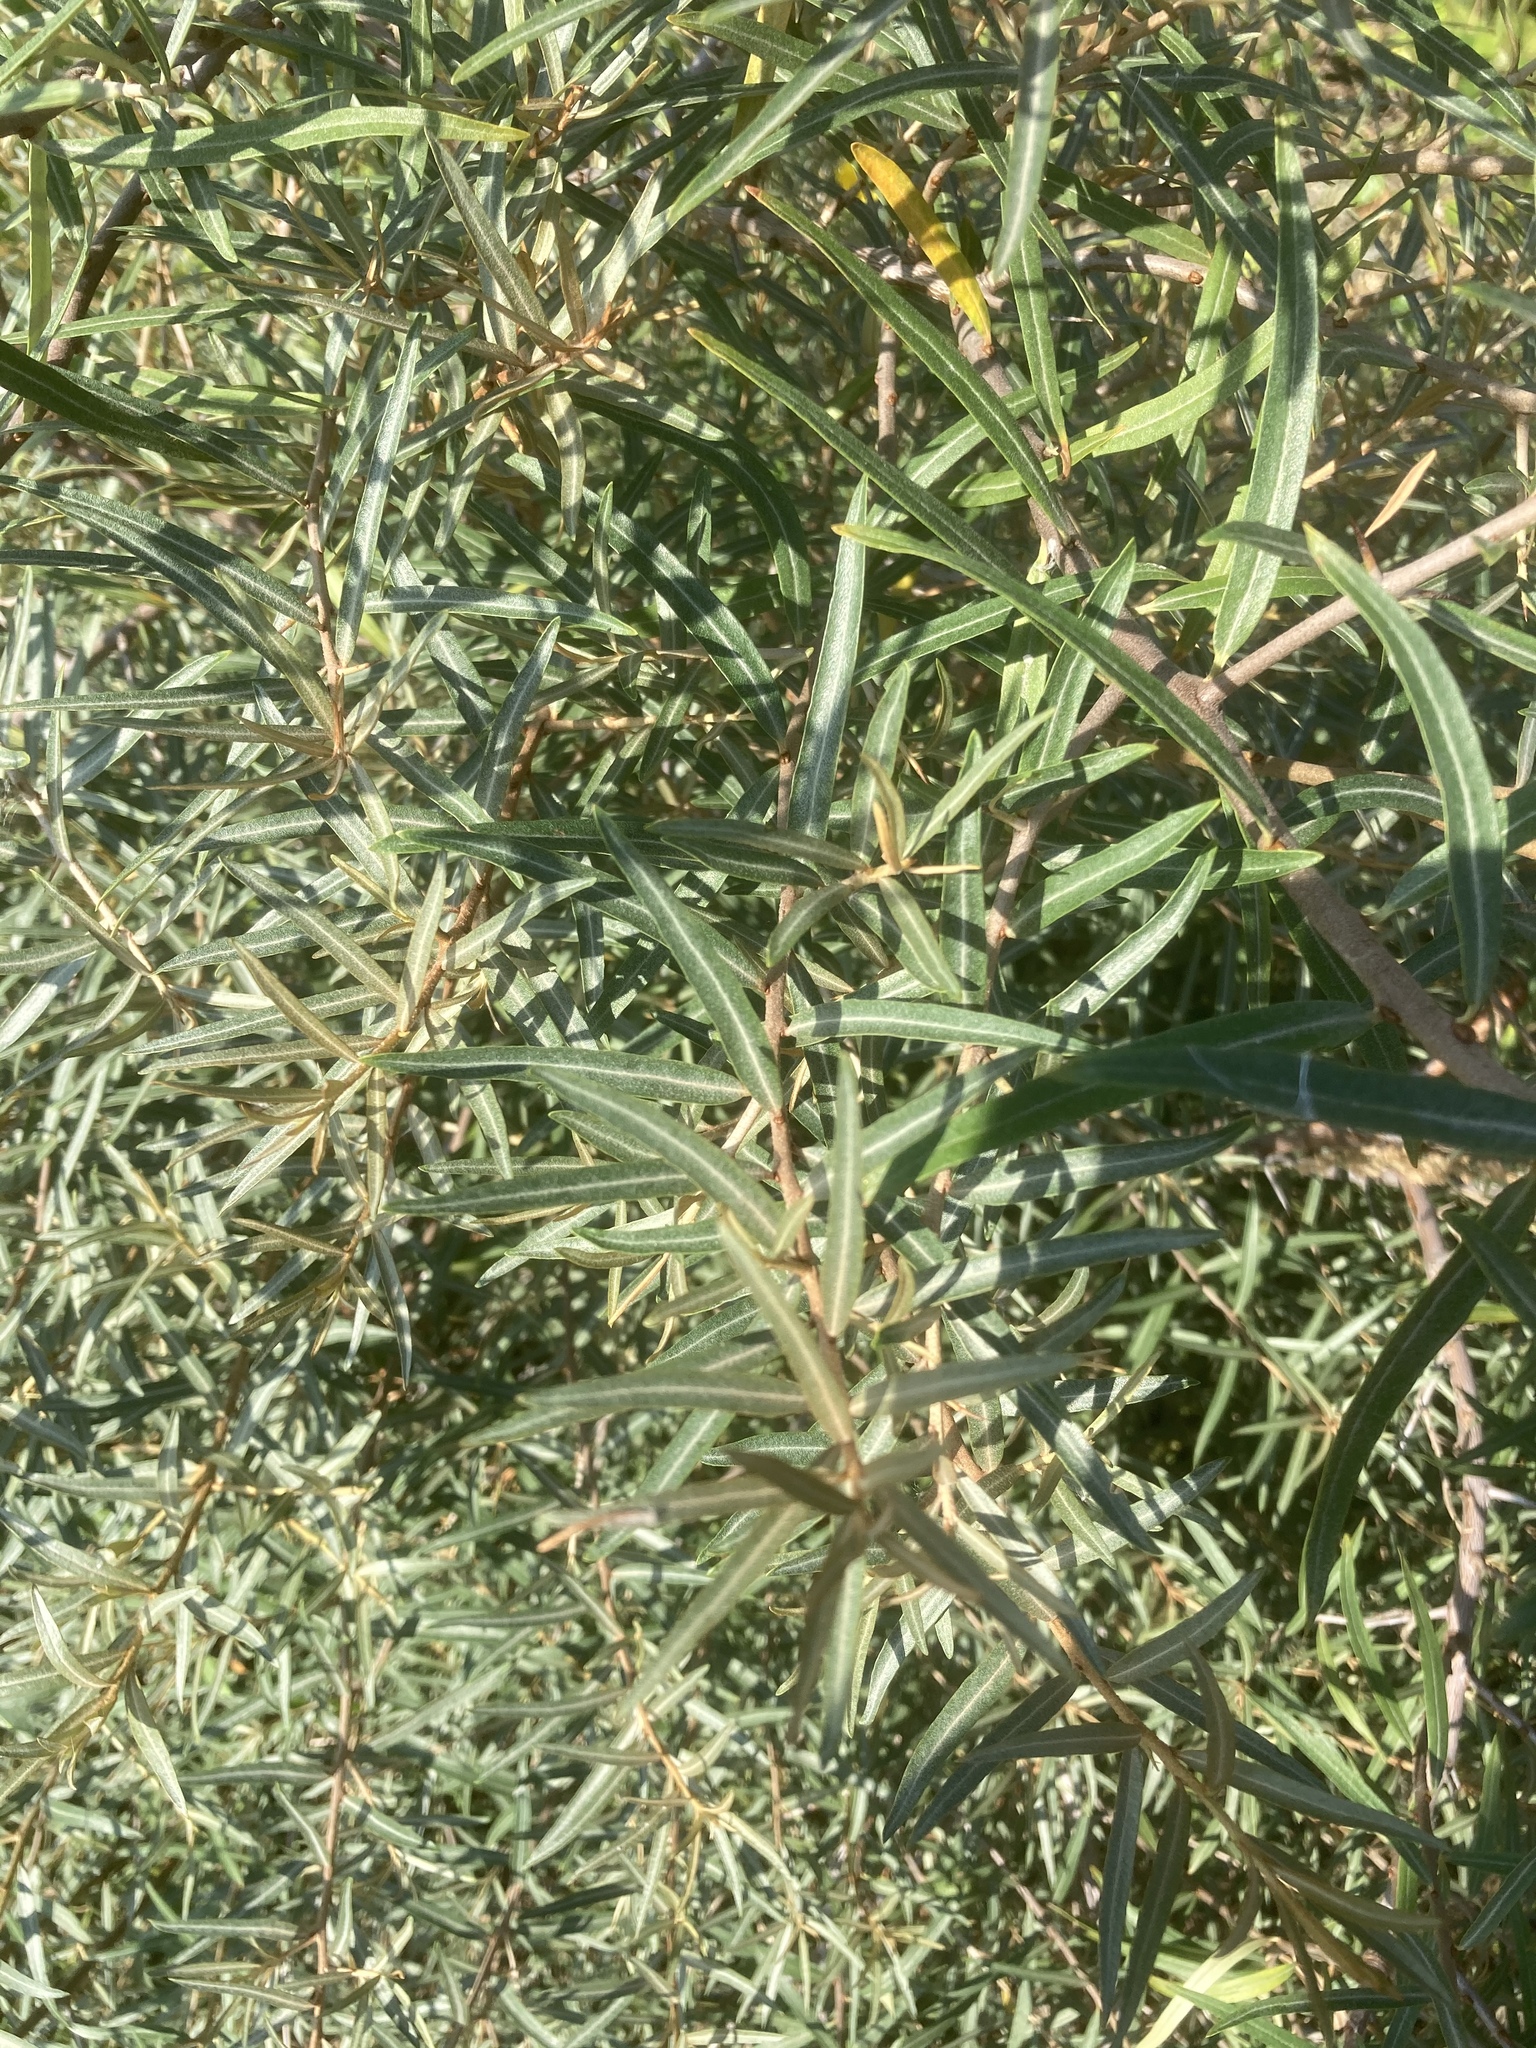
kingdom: Plantae
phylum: Tracheophyta
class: Magnoliopsida
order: Rosales
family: Elaeagnaceae
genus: Hippophae
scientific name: Hippophae rhamnoides
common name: Sea-buckthorn
